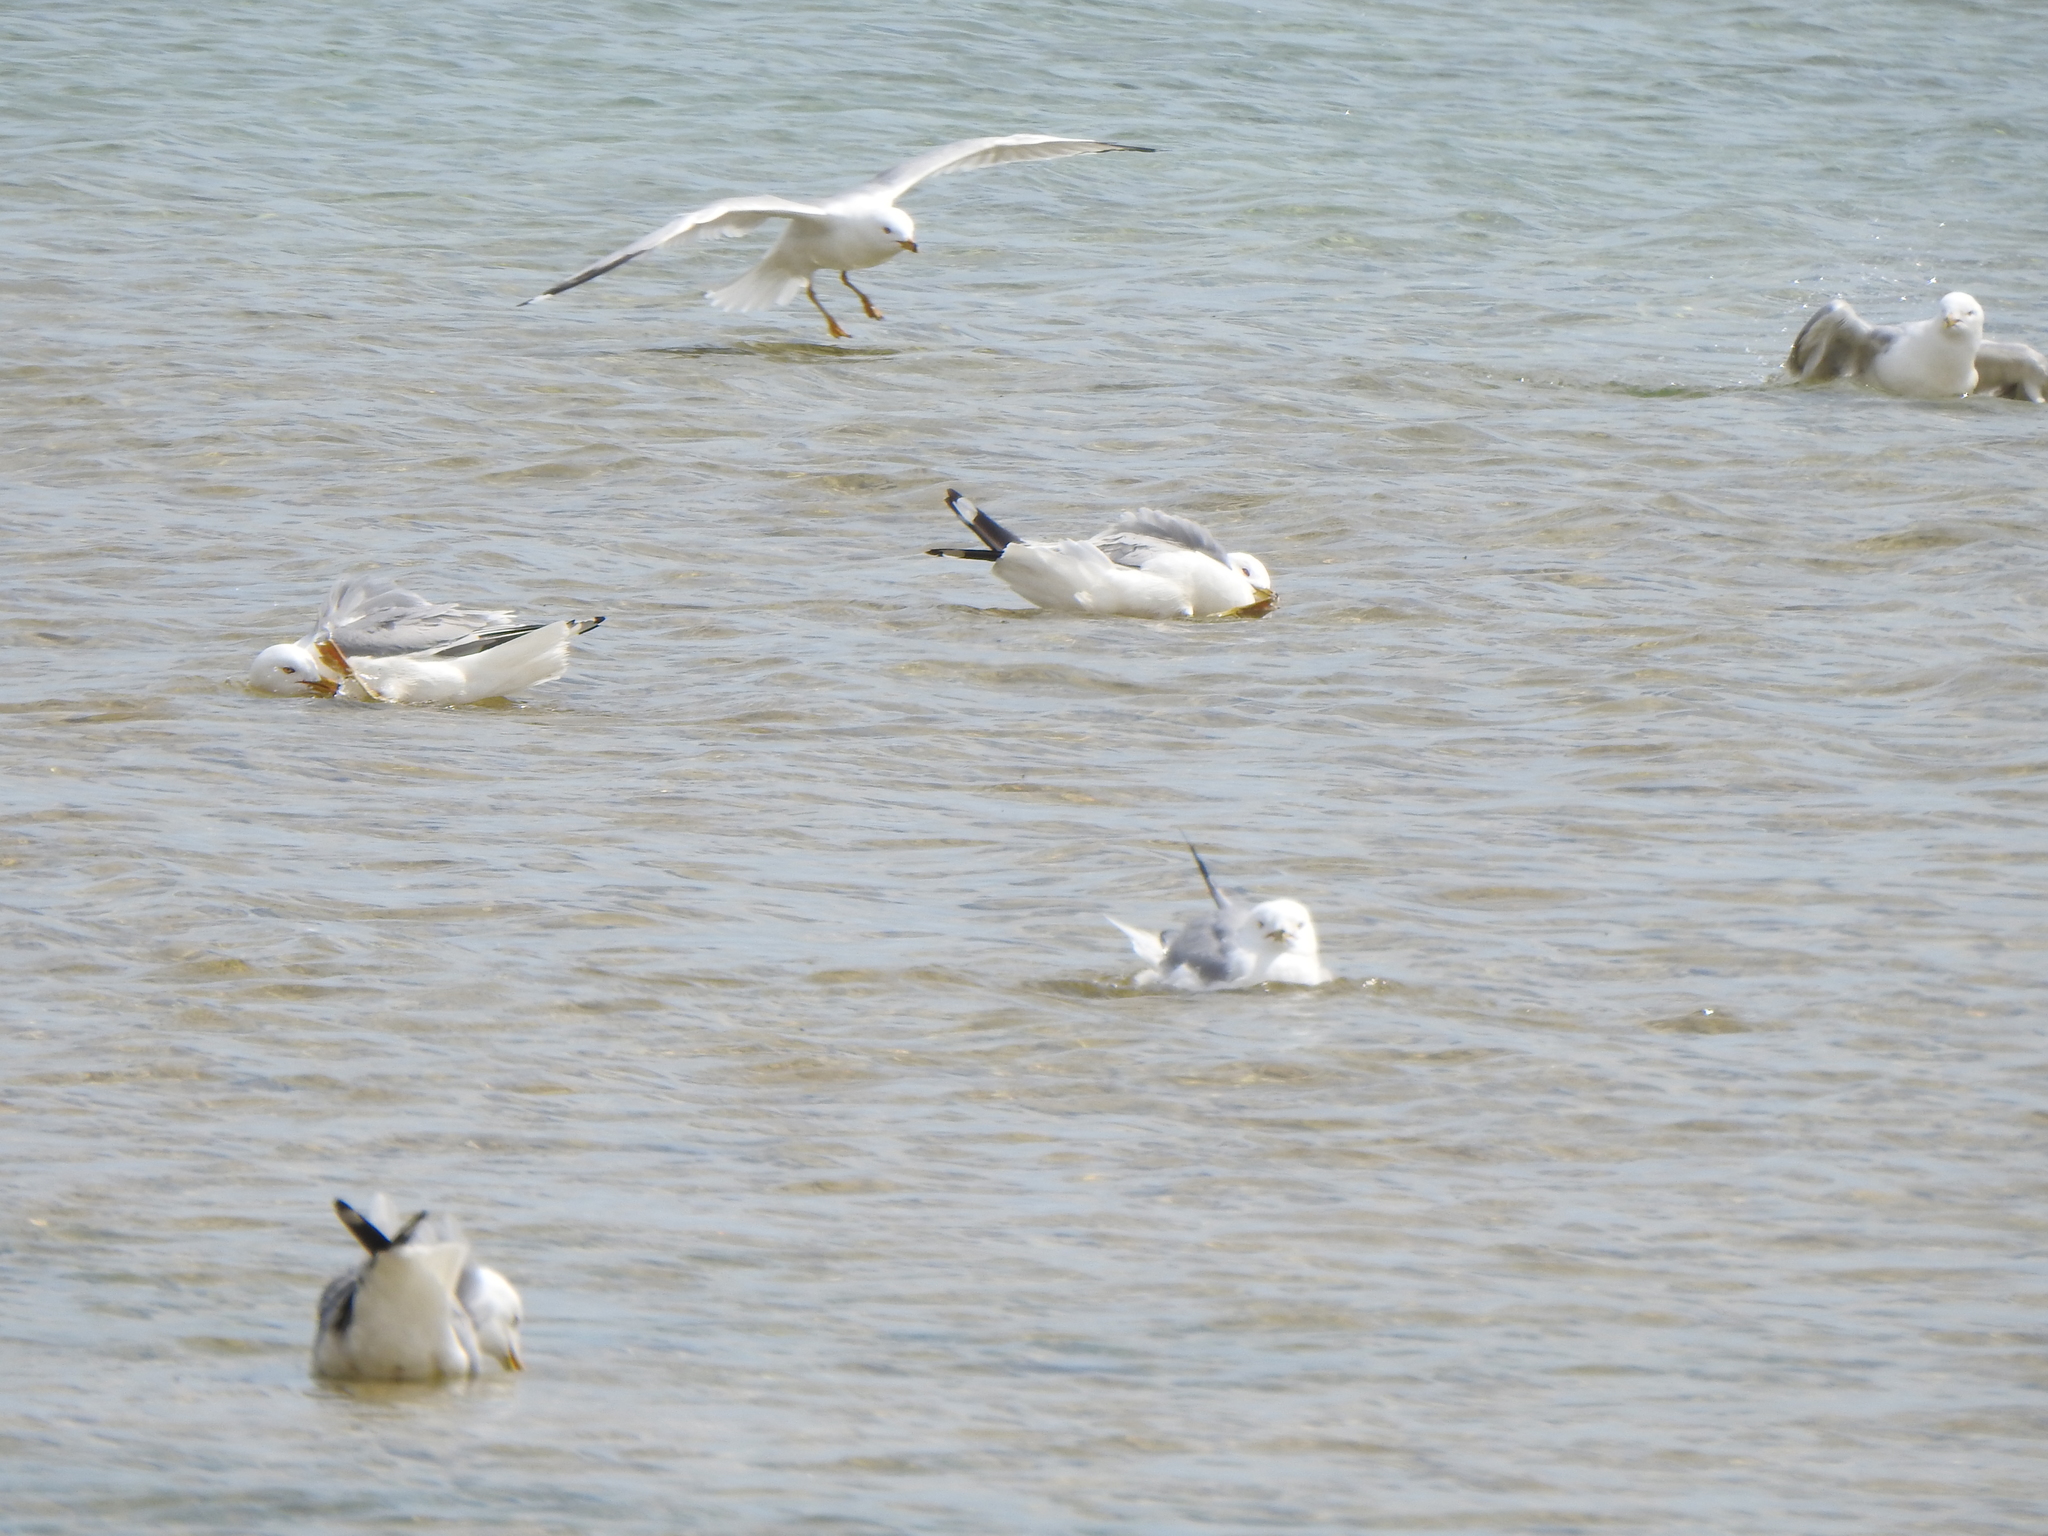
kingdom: Animalia
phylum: Chordata
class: Aves
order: Charadriiformes
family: Laridae
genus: Larus
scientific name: Larus delawarensis
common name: Ring-billed gull
